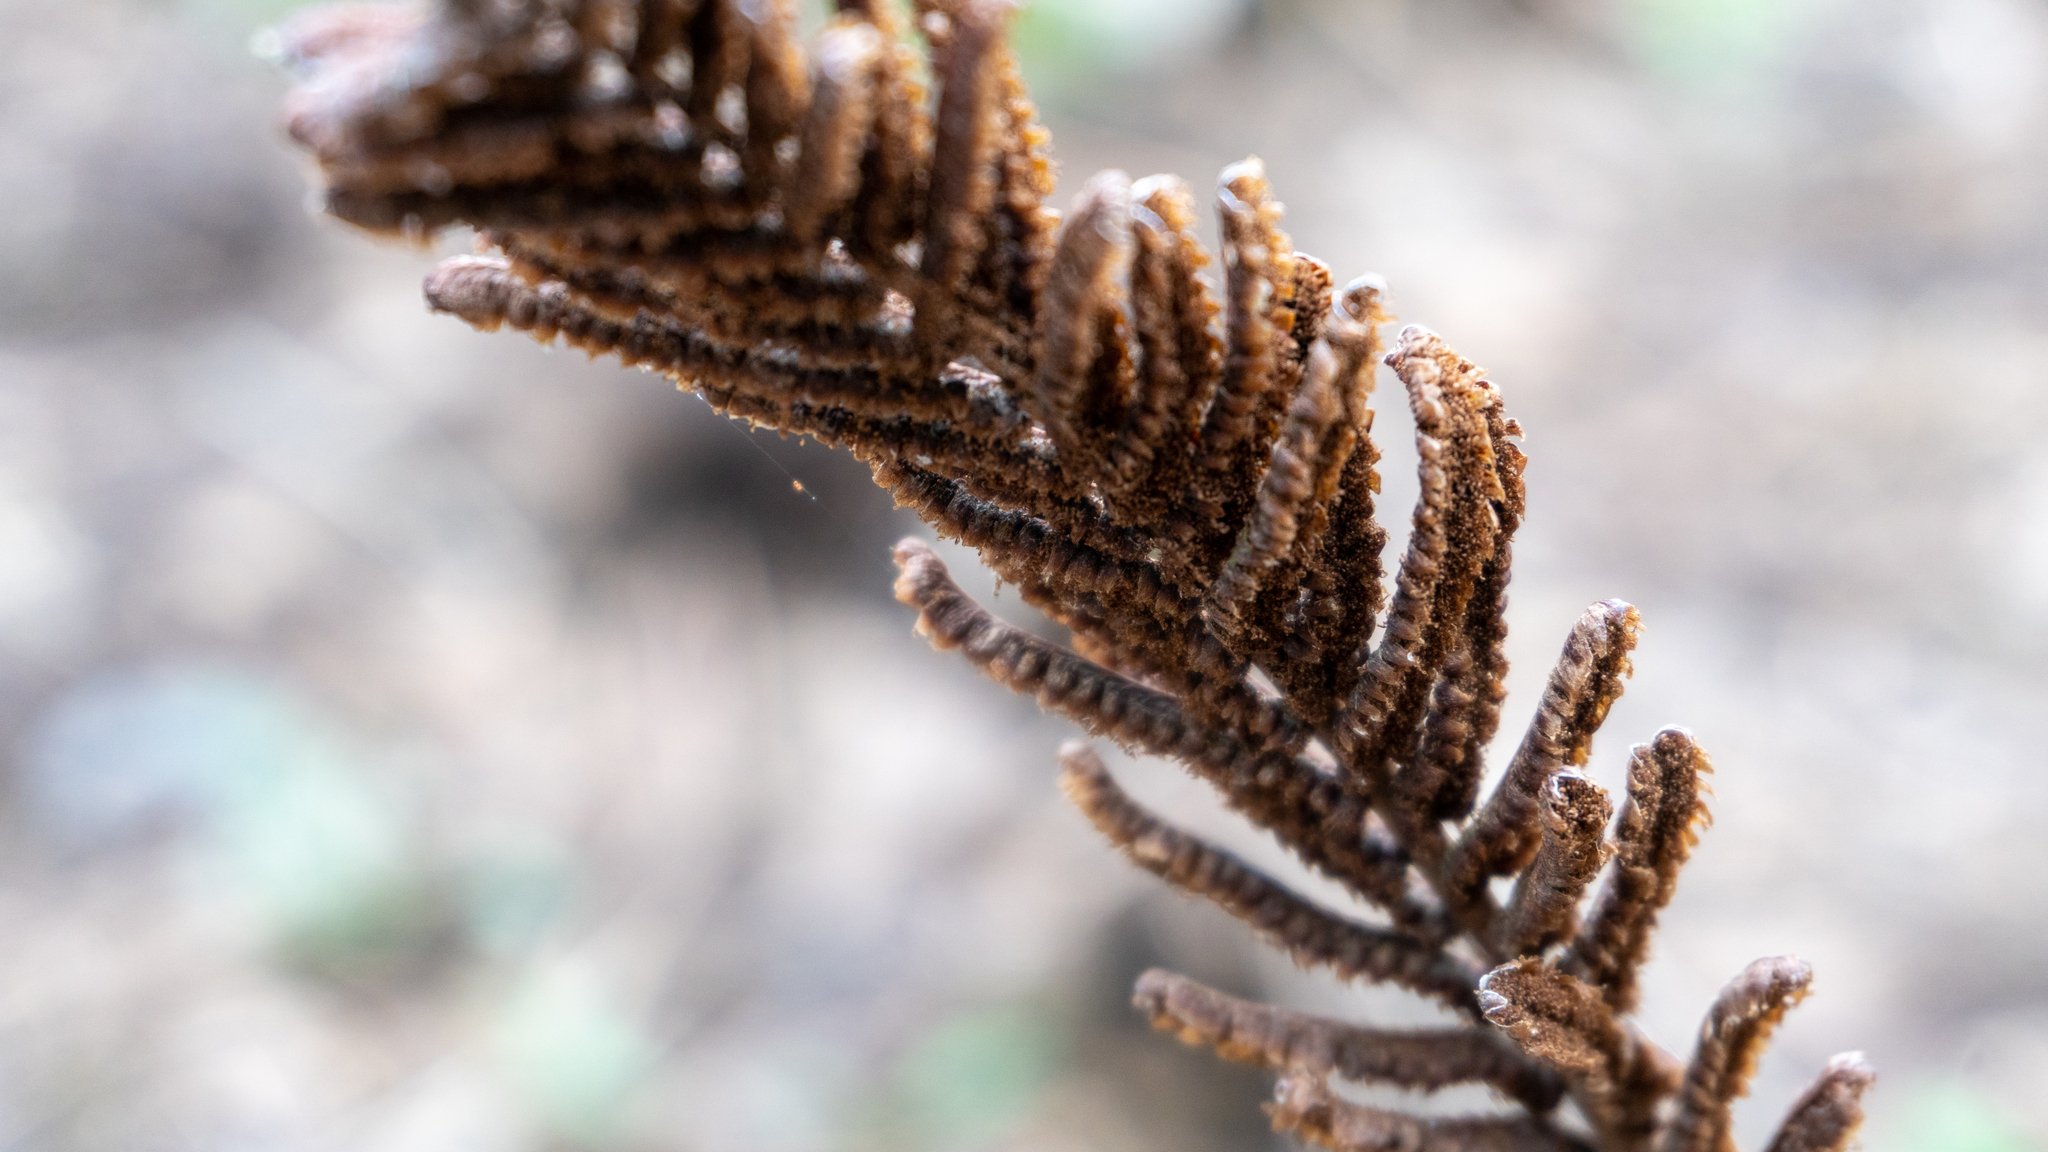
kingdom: Plantae
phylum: Tracheophyta
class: Polypodiopsida
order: Polypodiales
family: Onocleaceae
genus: Matteuccia
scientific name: Matteuccia struthiopteris
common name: Ostrich fern
